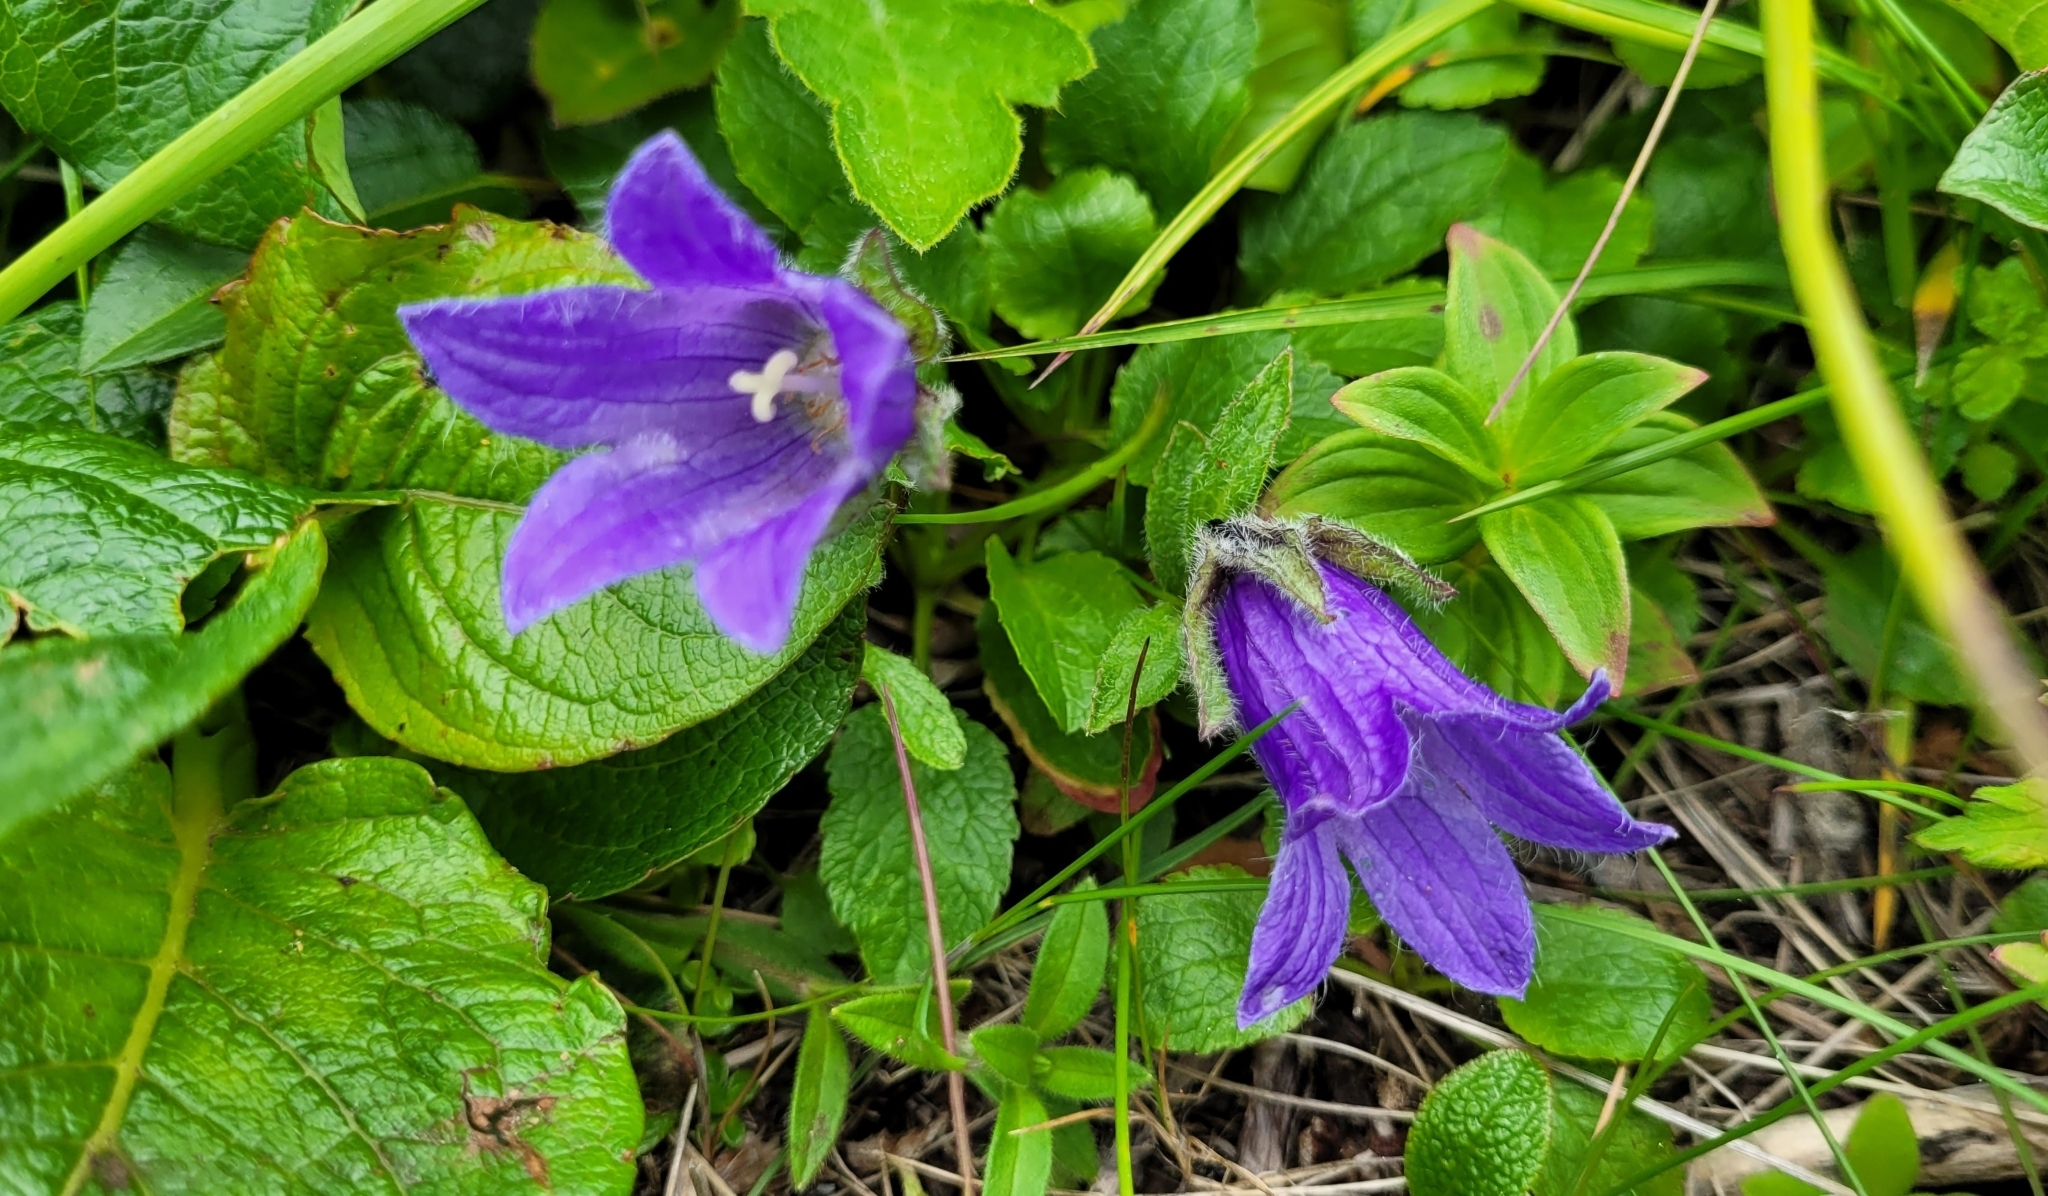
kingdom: Plantae
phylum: Tracheophyta
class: Magnoliopsida
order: Asterales
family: Campanulaceae
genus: Campanula
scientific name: Campanula dasyantha
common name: Hairyflower bellflower
